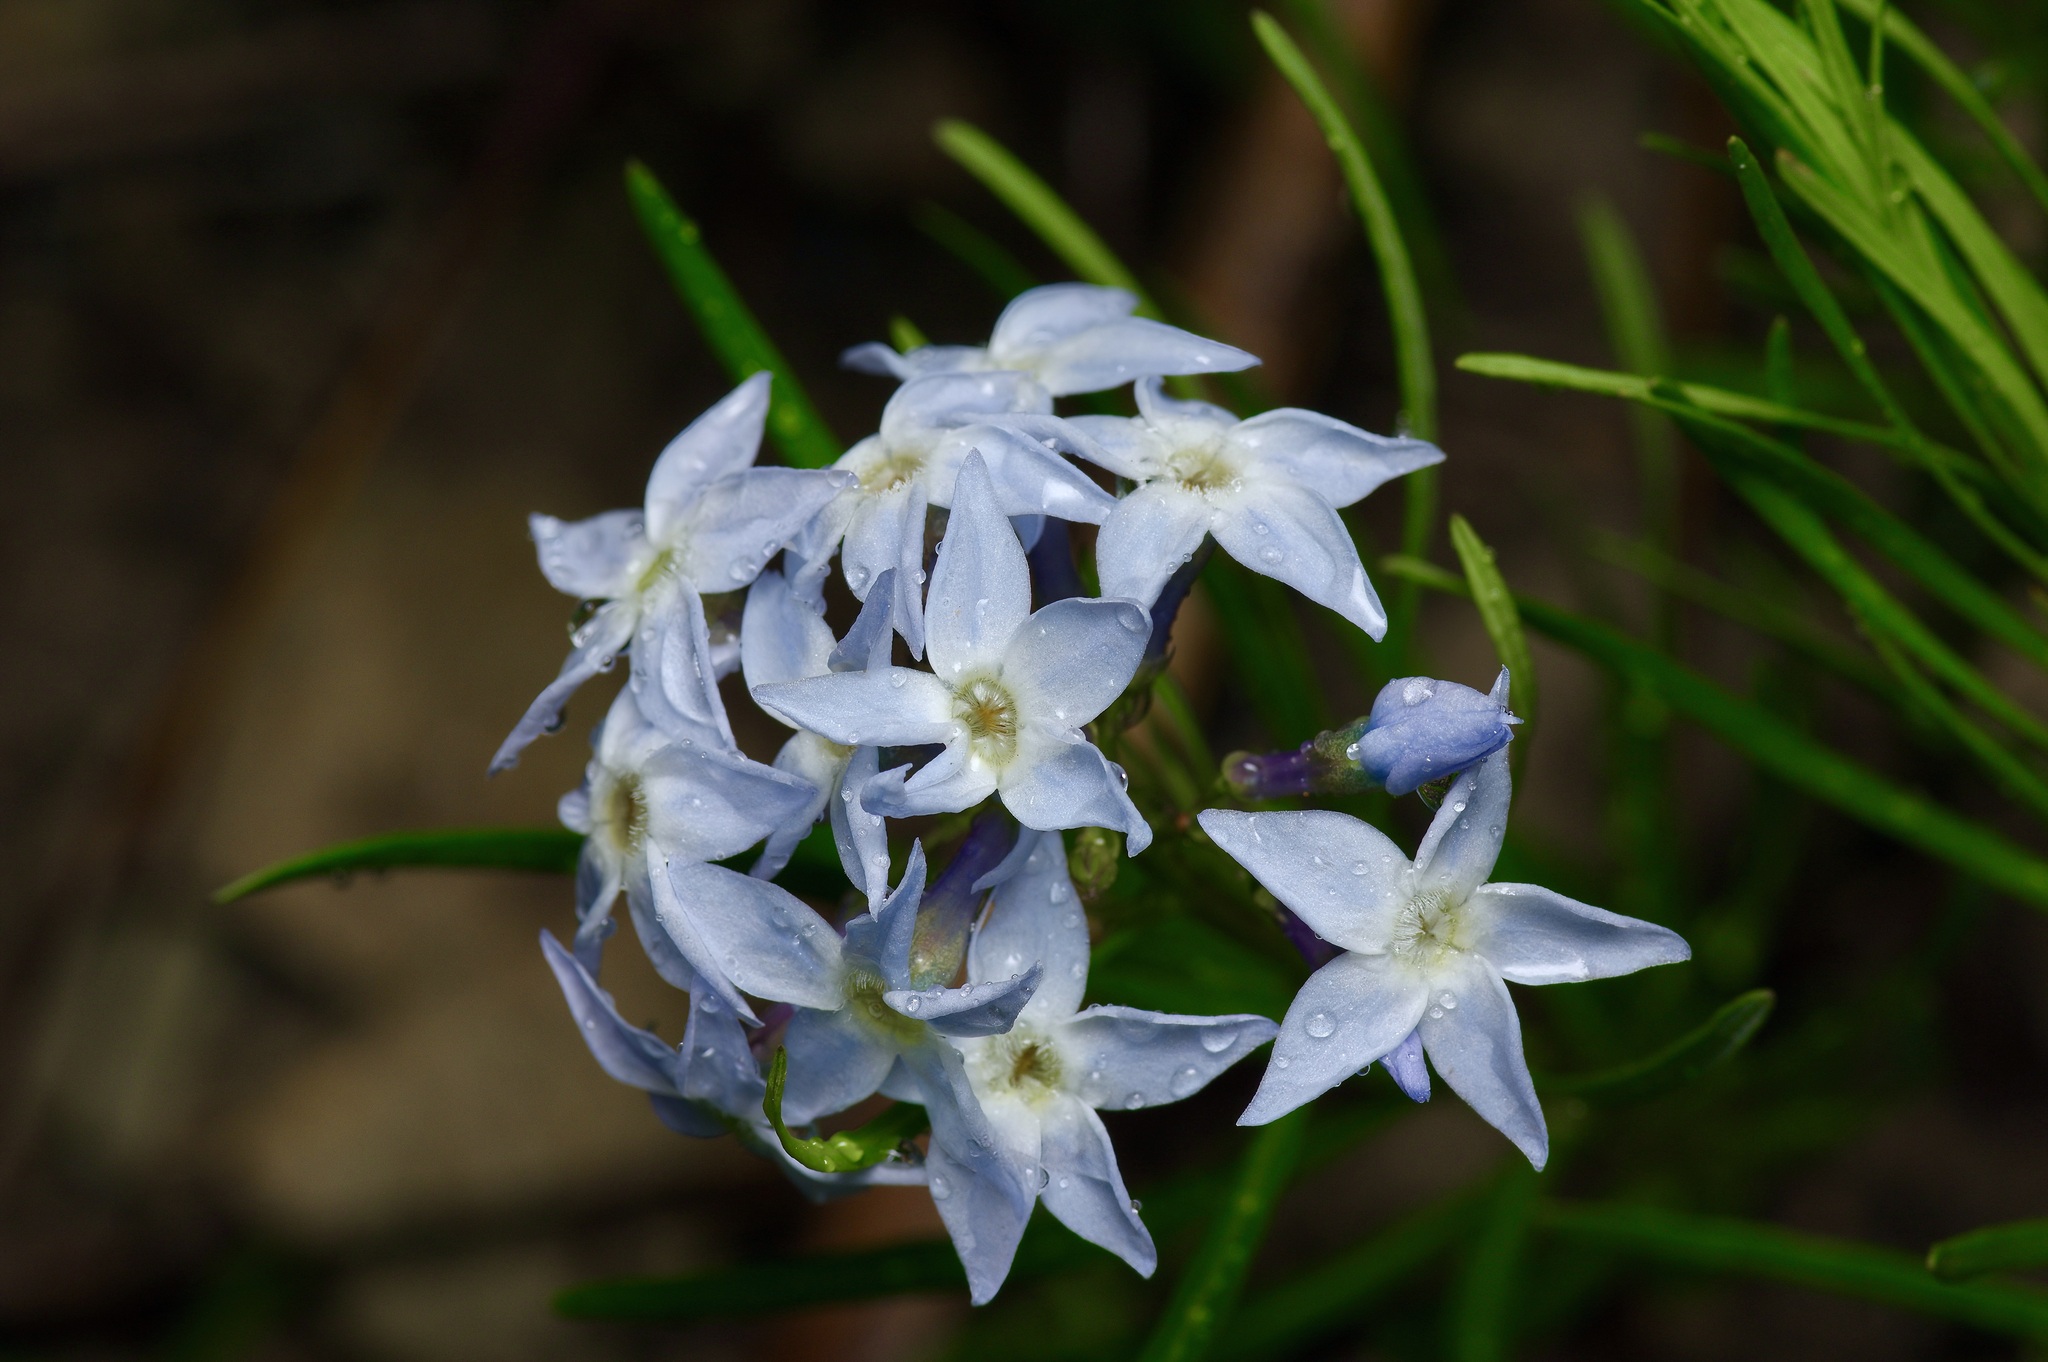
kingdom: Plantae
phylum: Tracheophyta
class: Magnoliopsida
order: Gentianales
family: Apocynaceae
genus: Amsonia
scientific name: Amsonia ciliata
